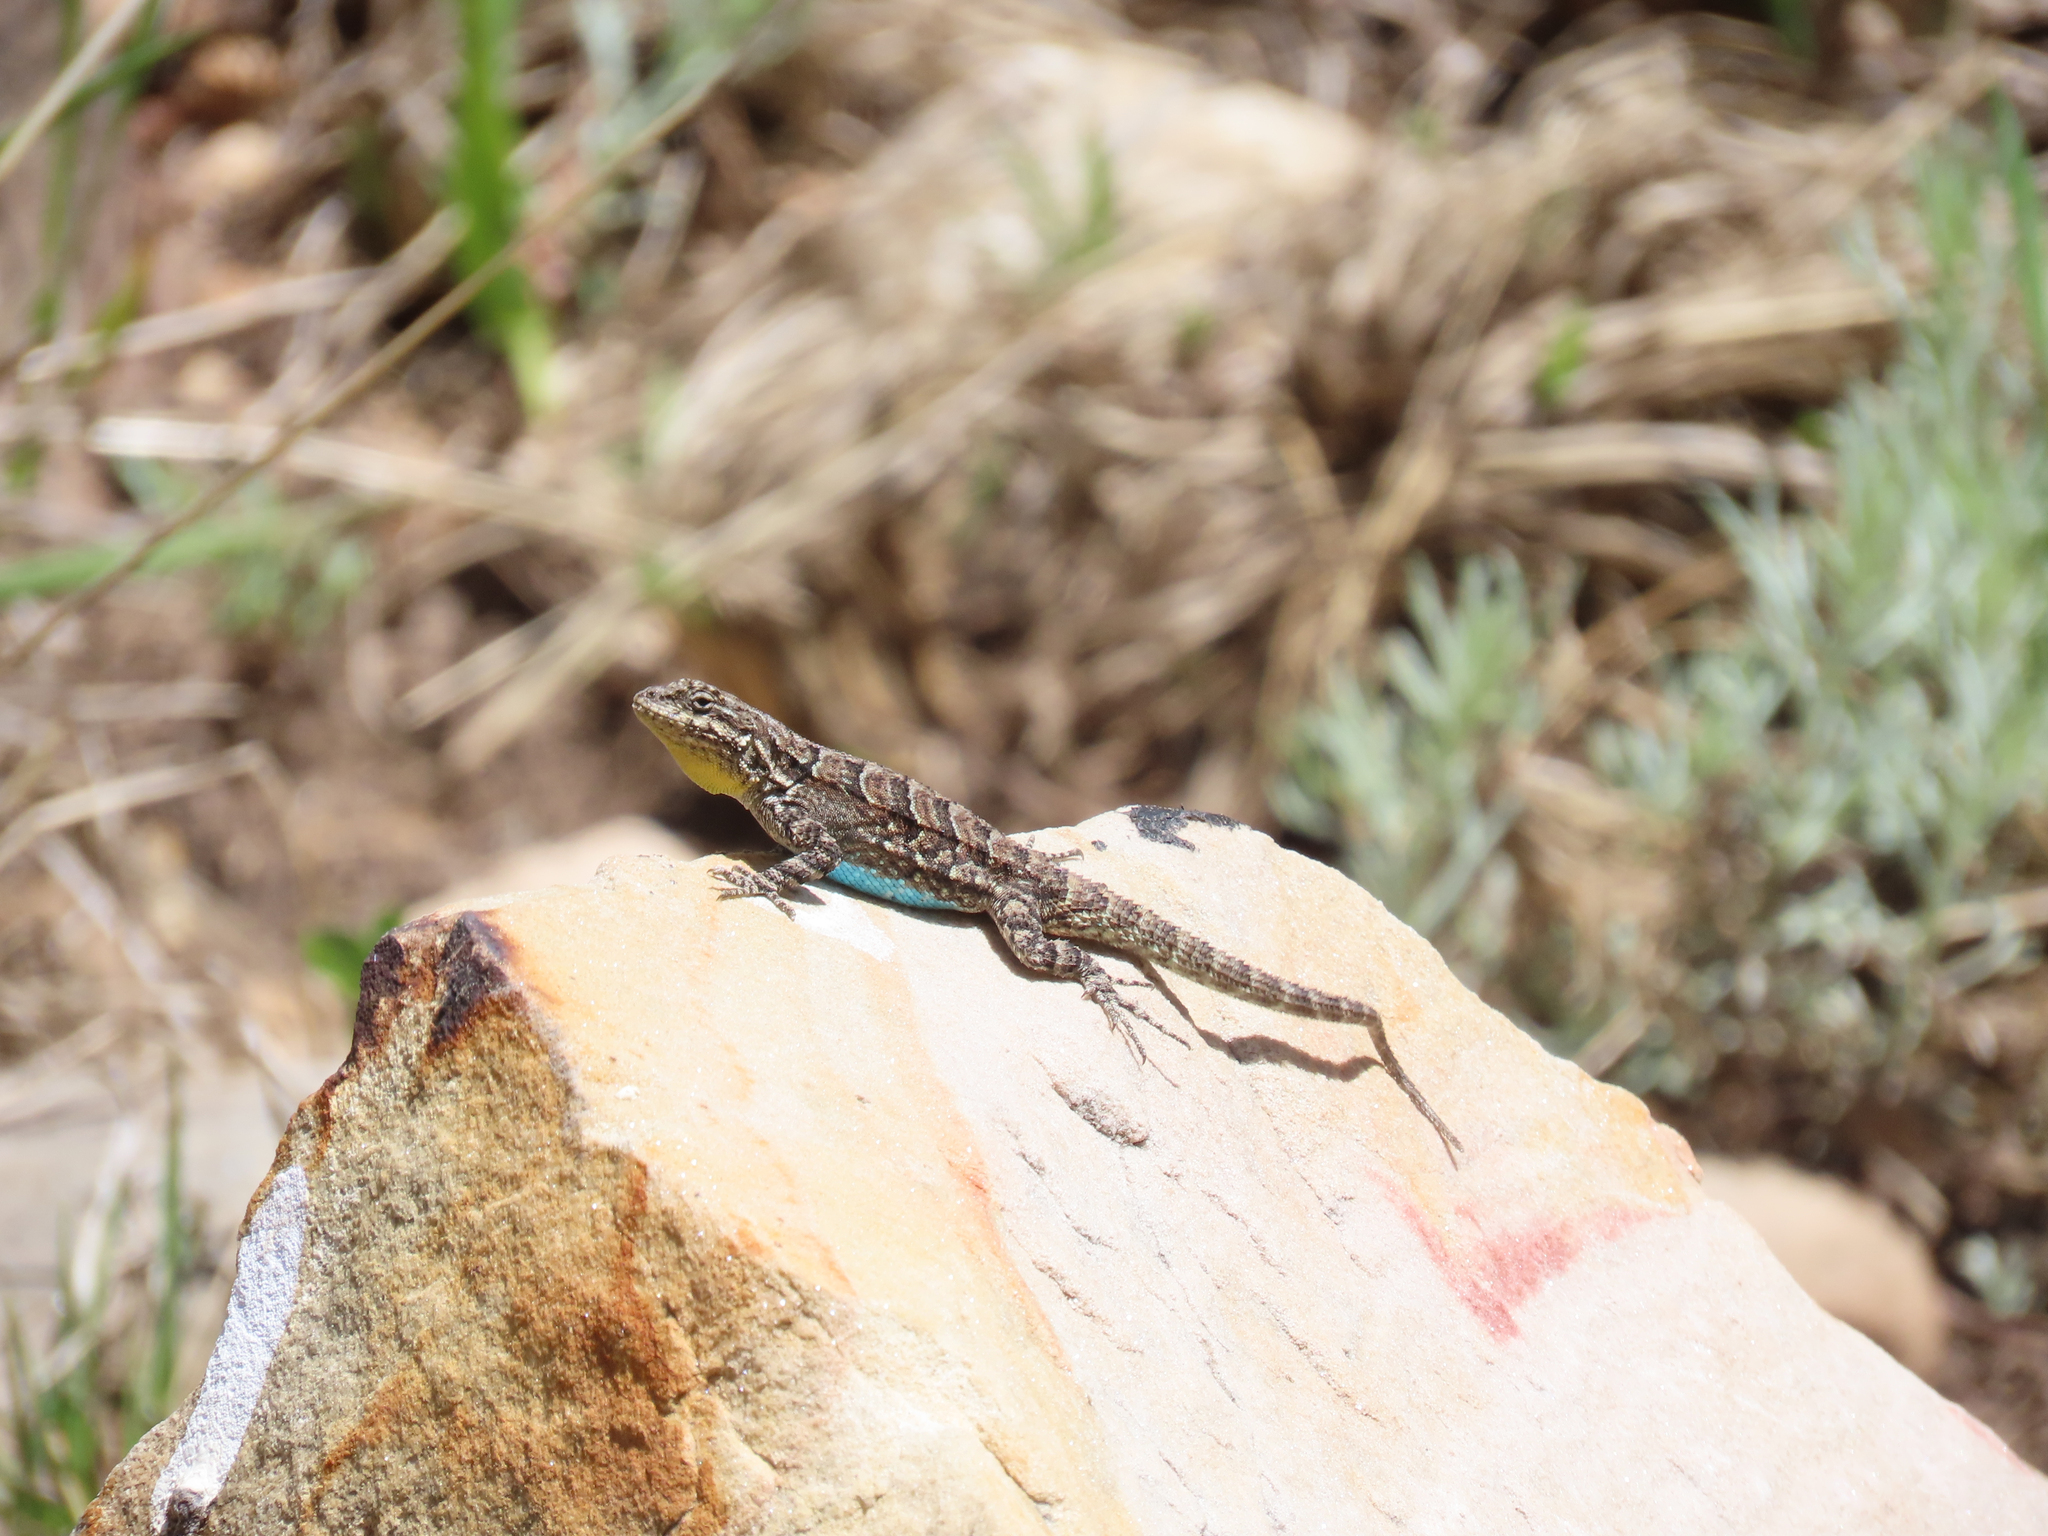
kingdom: Animalia
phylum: Chordata
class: Squamata
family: Phrynosomatidae
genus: Urosaurus
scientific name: Urosaurus ornatus
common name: Ornate tree lizard
